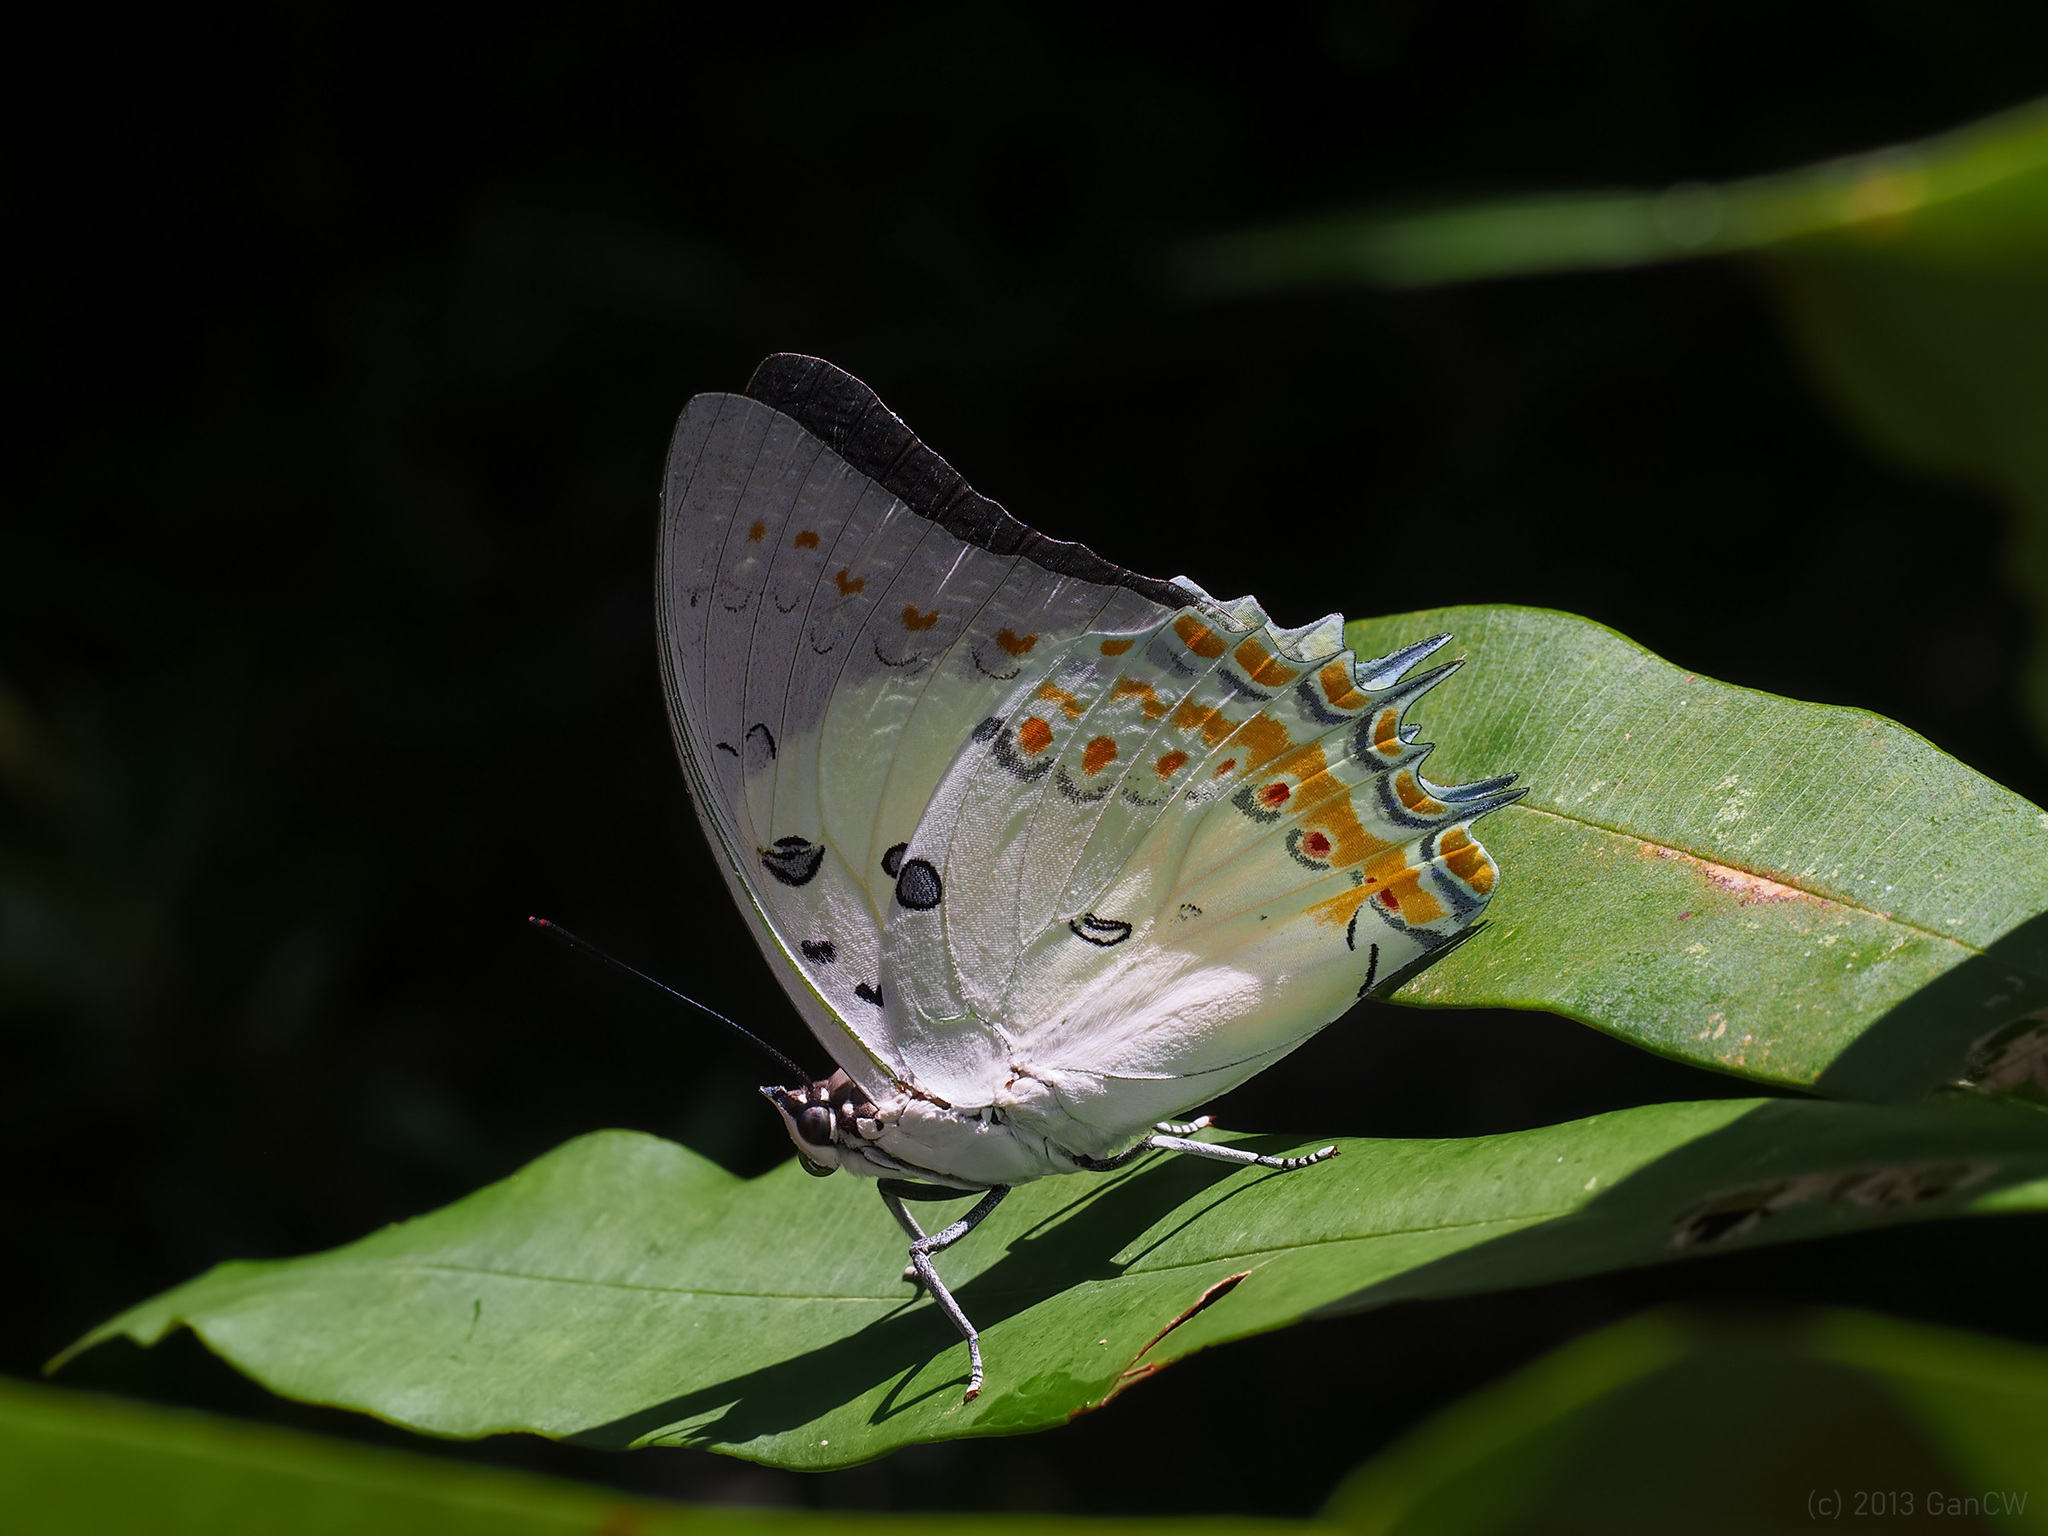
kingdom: Animalia
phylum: Arthropoda
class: Insecta
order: Lepidoptera
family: Nymphalidae
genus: Polyura
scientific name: Polyura delphis
